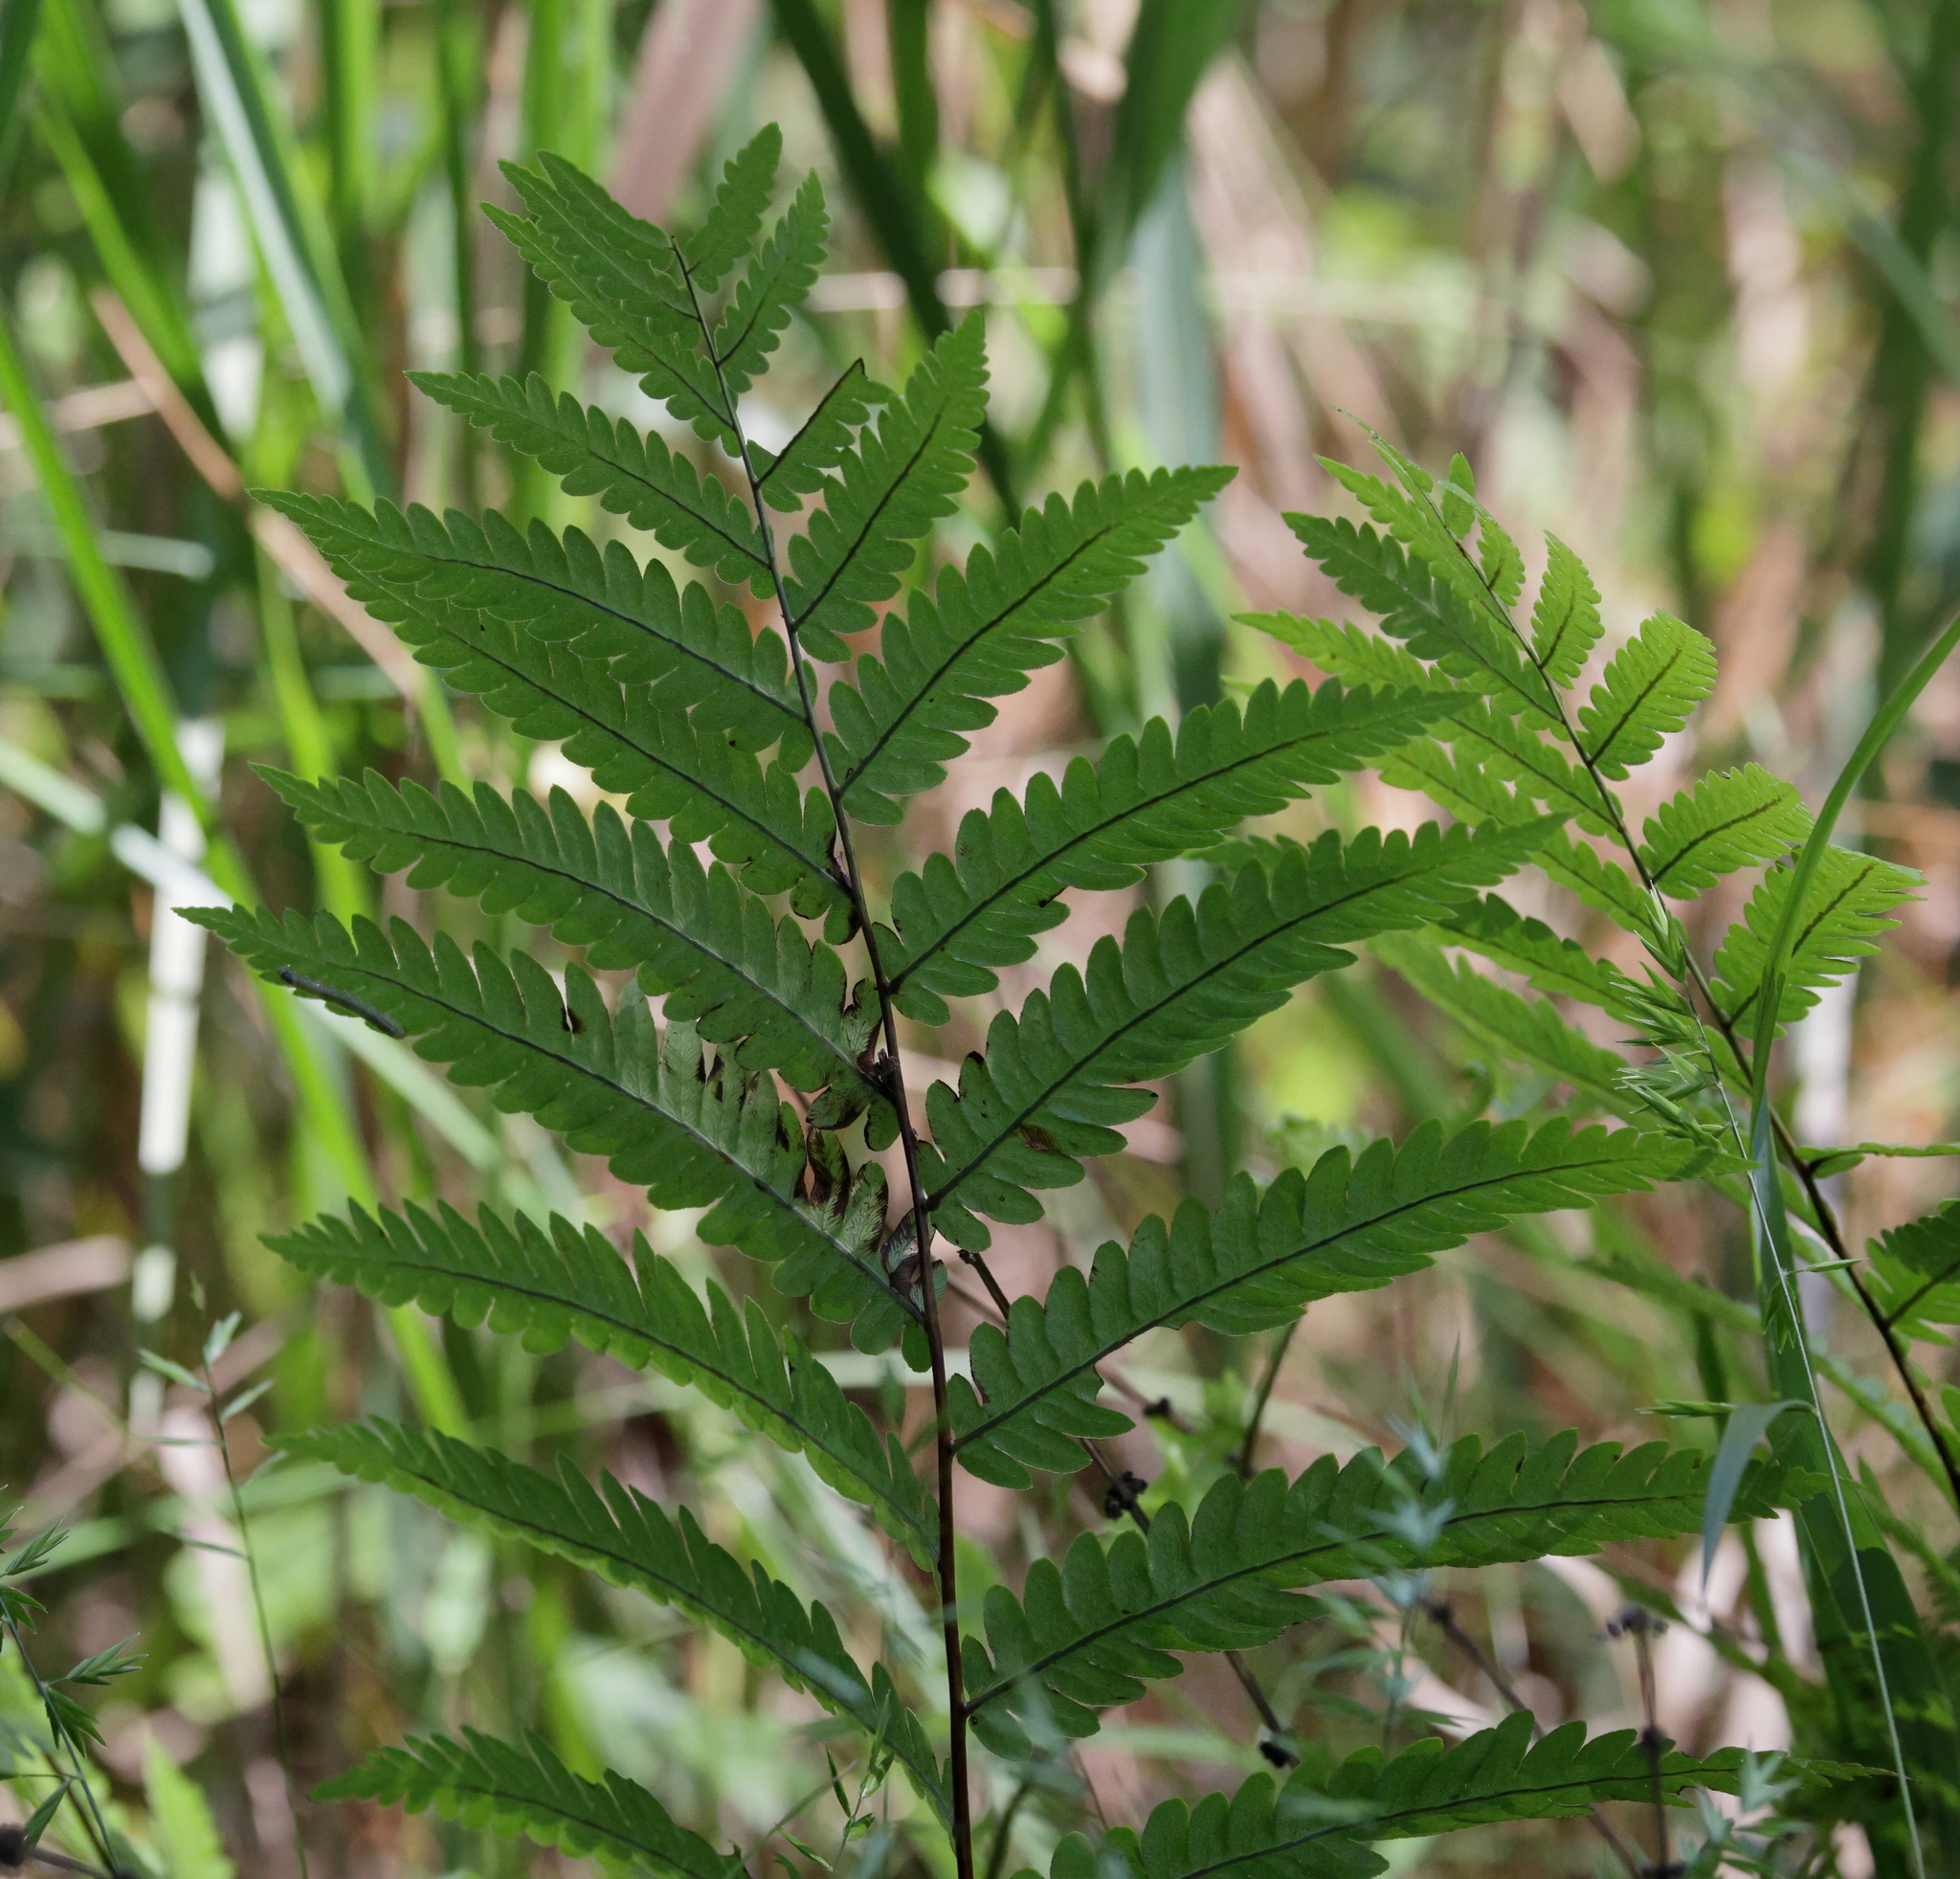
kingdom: Plantae
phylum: Tracheophyta
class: Polypodiopsida
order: Polypodiales
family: Blechnaceae
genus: Anchistea
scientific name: Anchistea virginica
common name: Virginia chain fern
